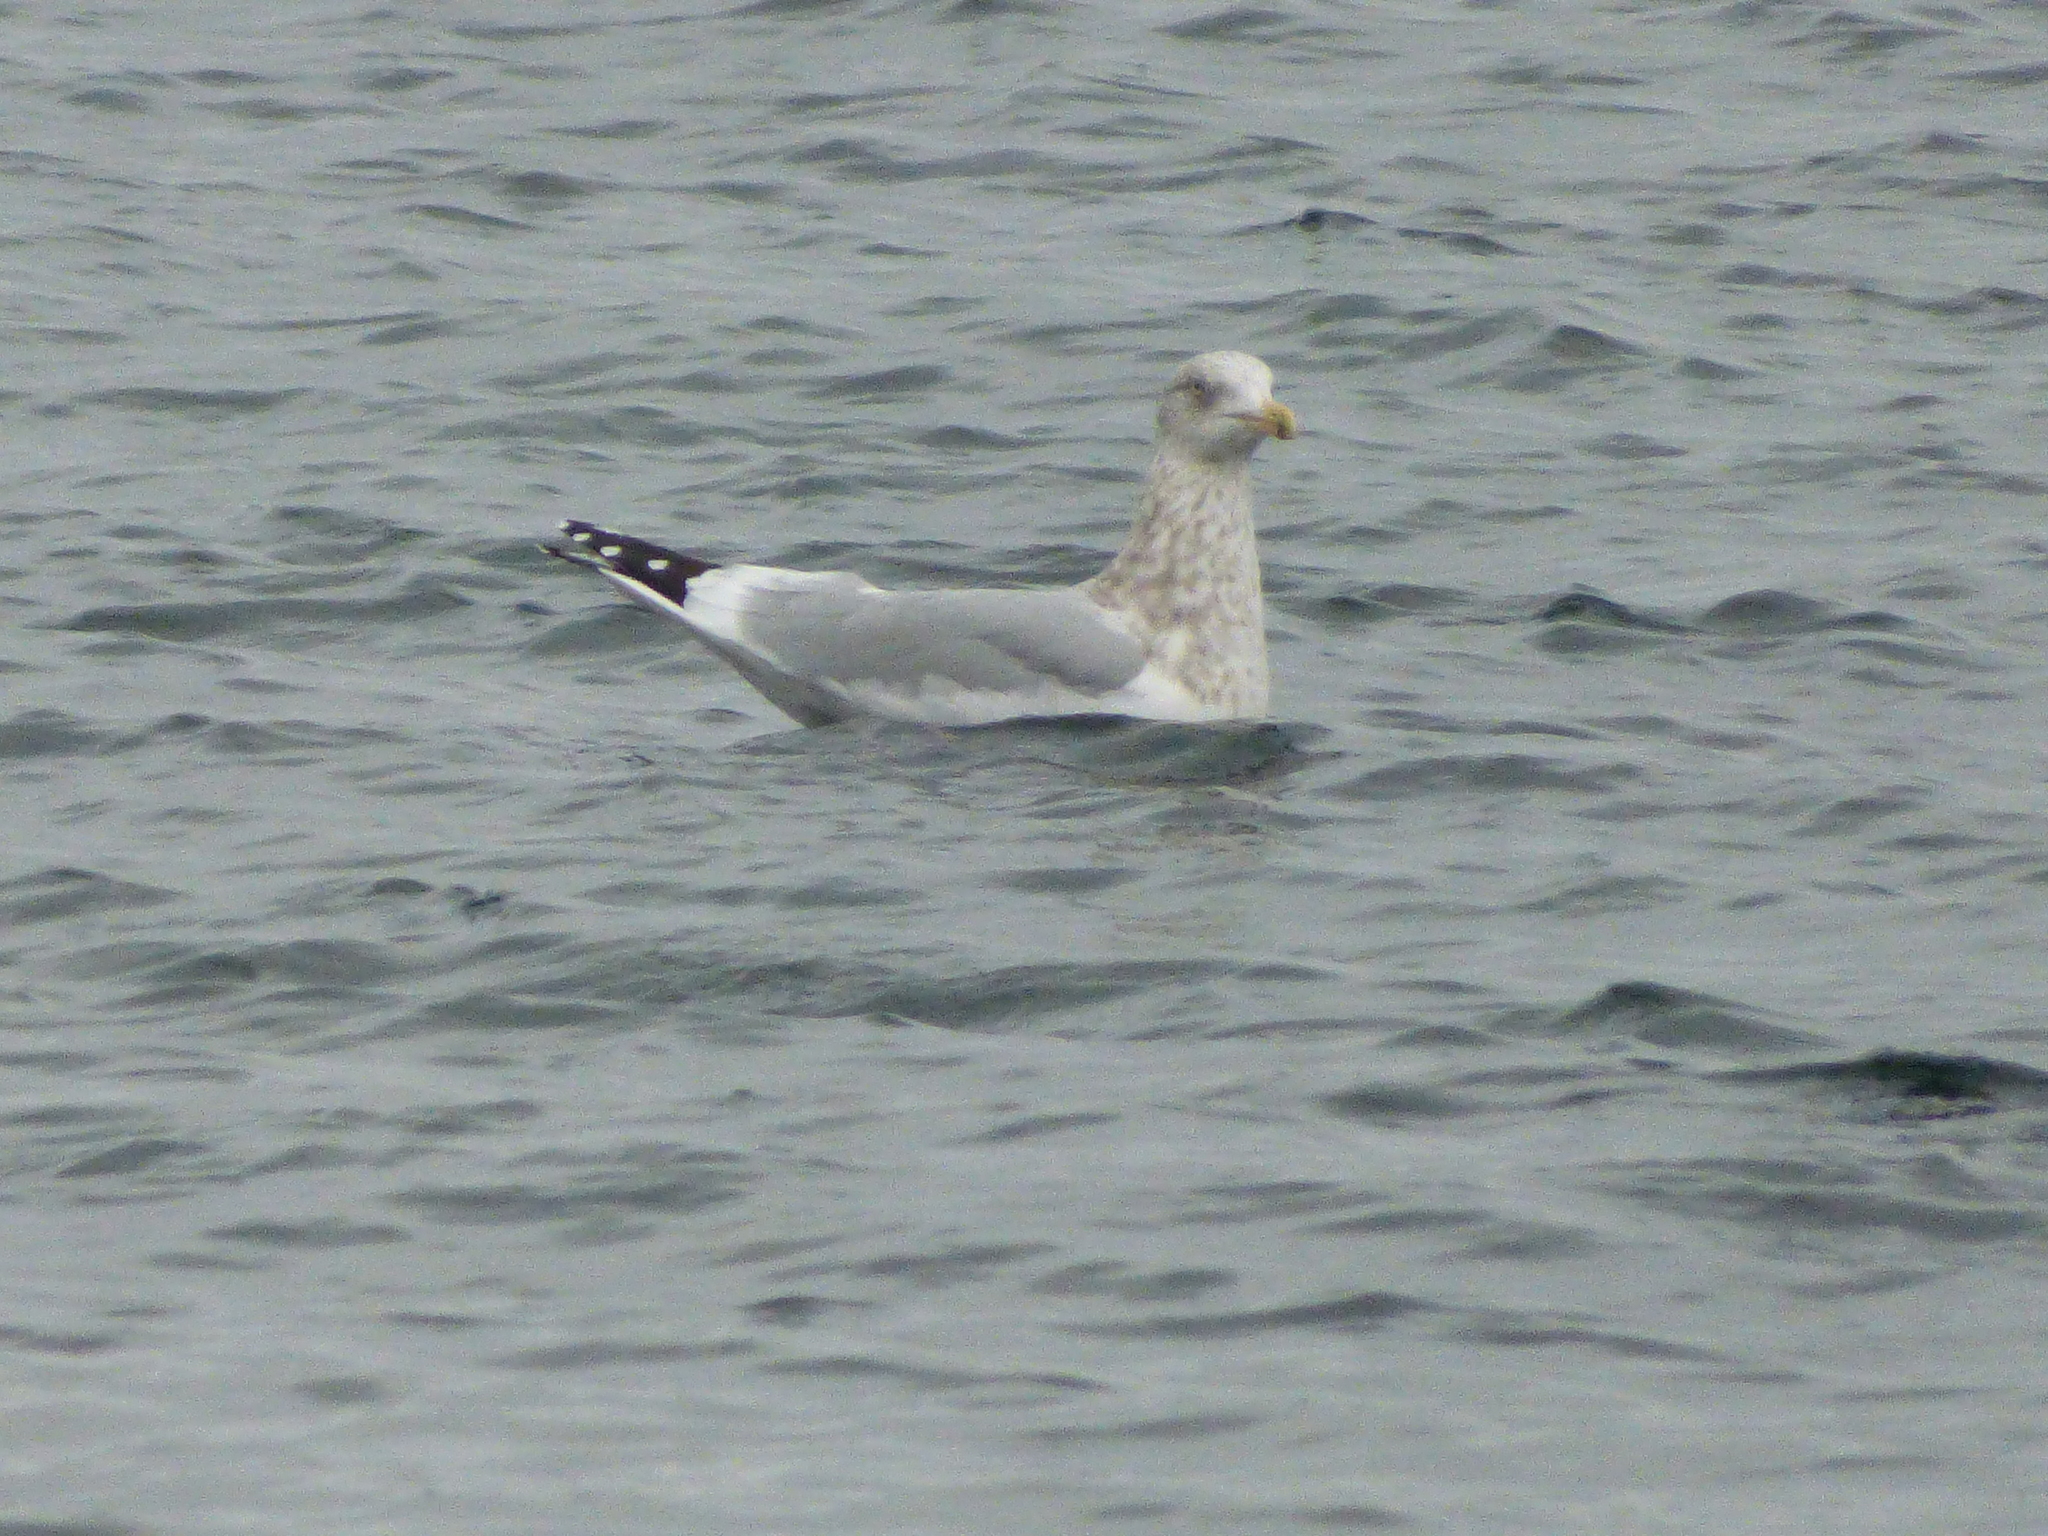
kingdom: Animalia
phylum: Chordata
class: Aves
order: Charadriiformes
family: Laridae
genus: Larus
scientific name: Larus smithsonianus
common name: American herring gull
